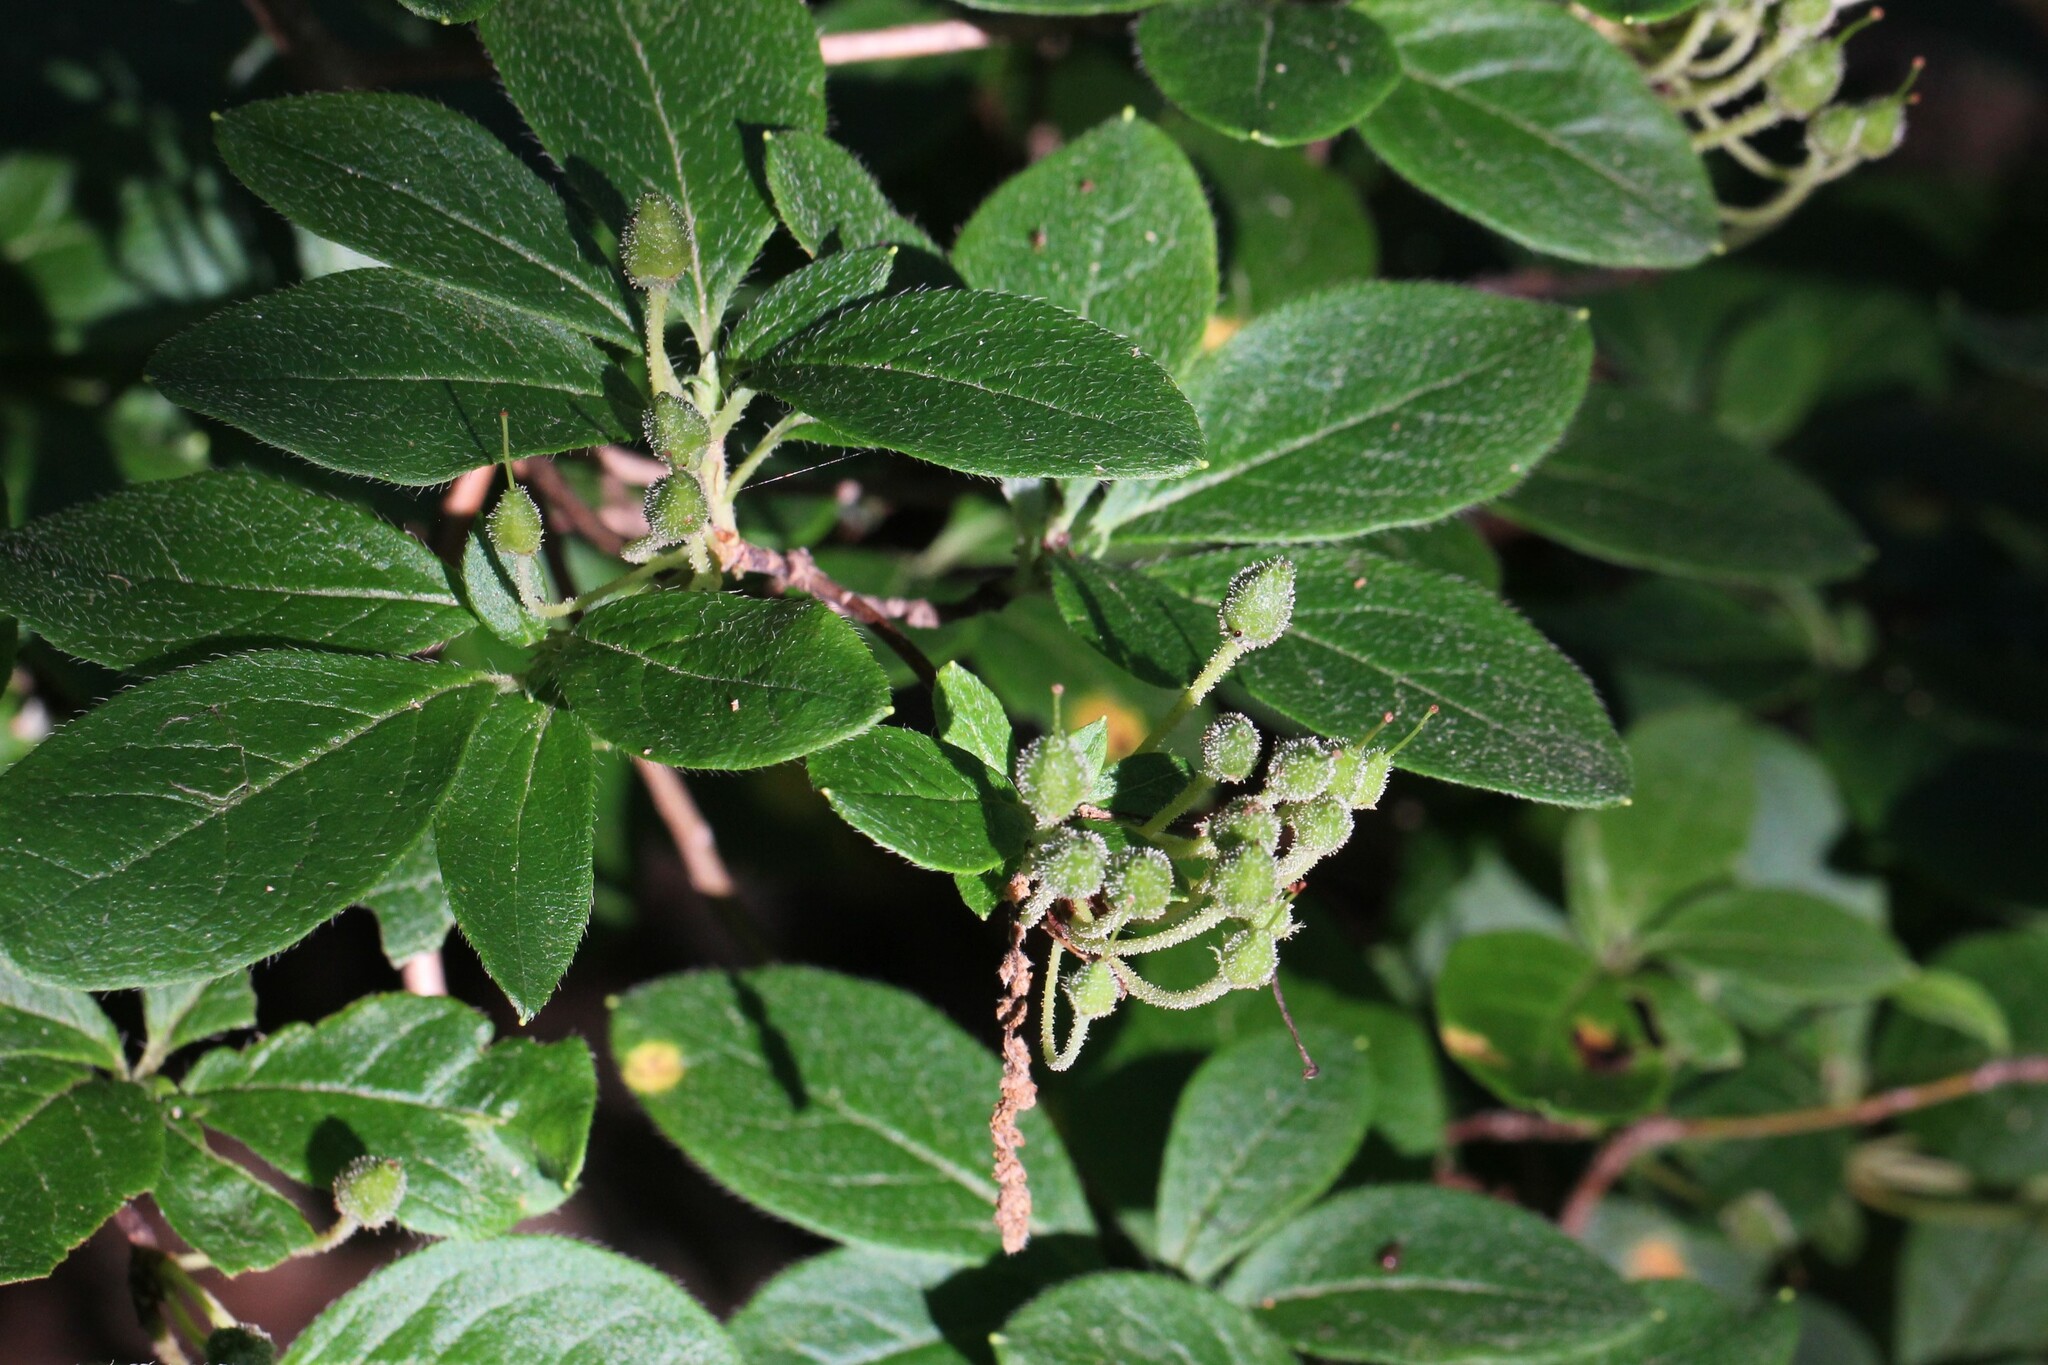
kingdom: Plantae
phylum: Tracheophyta
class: Magnoliopsida
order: Ericales
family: Ericaceae
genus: Rhododendron
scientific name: Rhododendron pilosum
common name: Hairy minniebush
